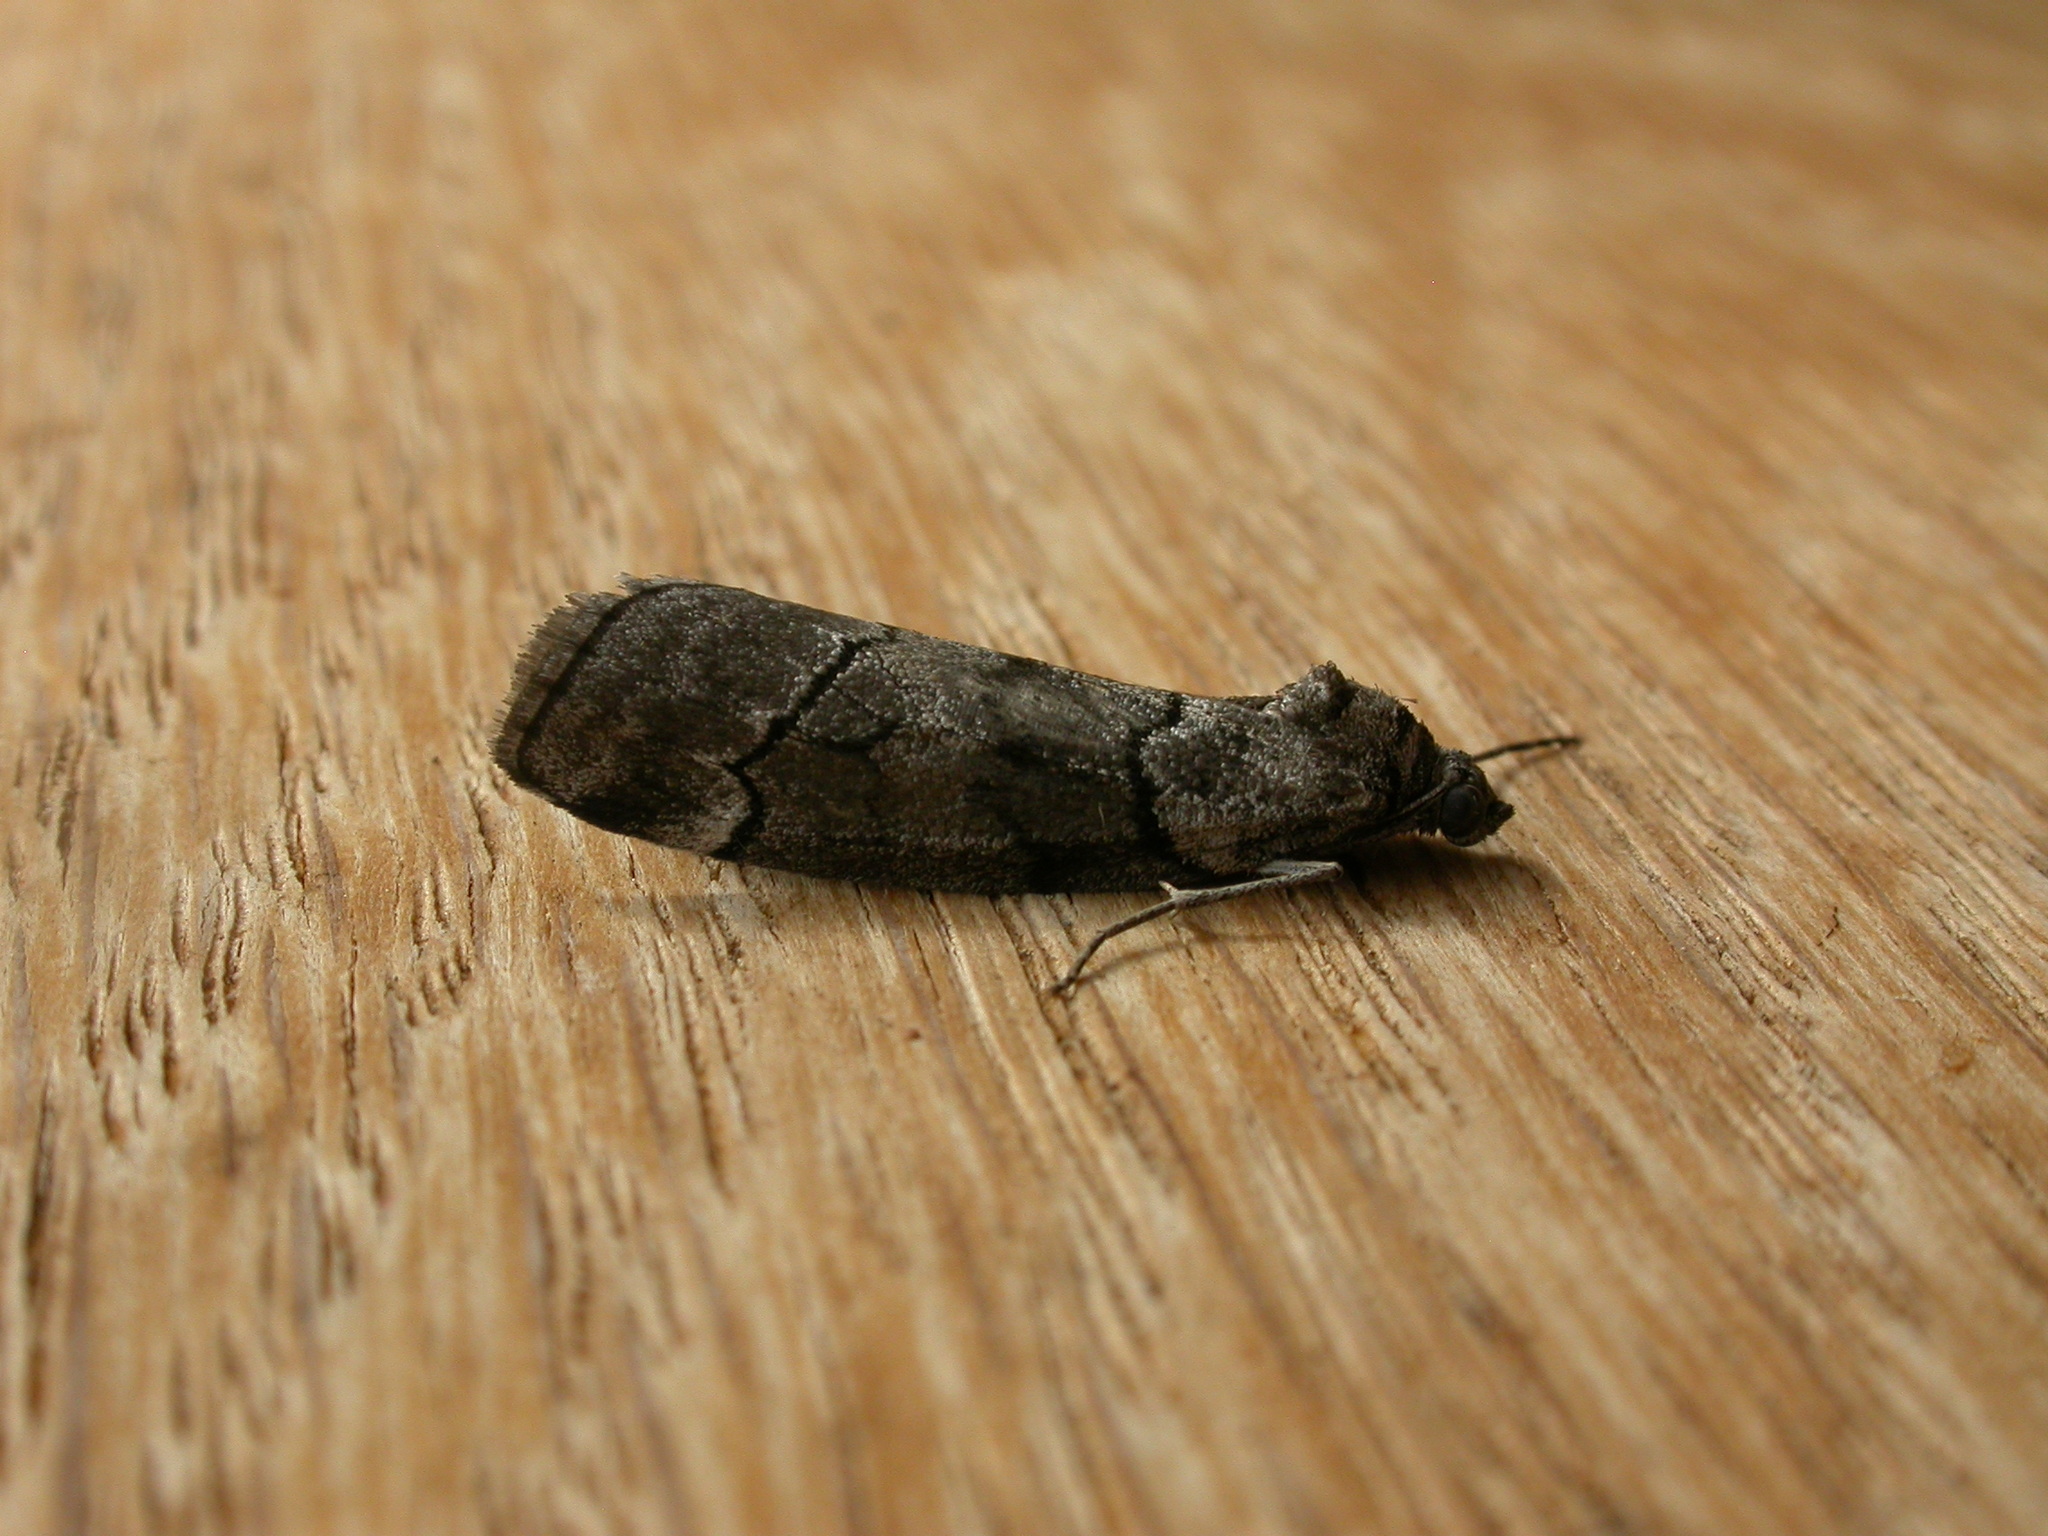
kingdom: Animalia
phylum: Arthropoda
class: Insecta
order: Lepidoptera
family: Geometridae
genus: Corula
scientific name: Corula geometroides
